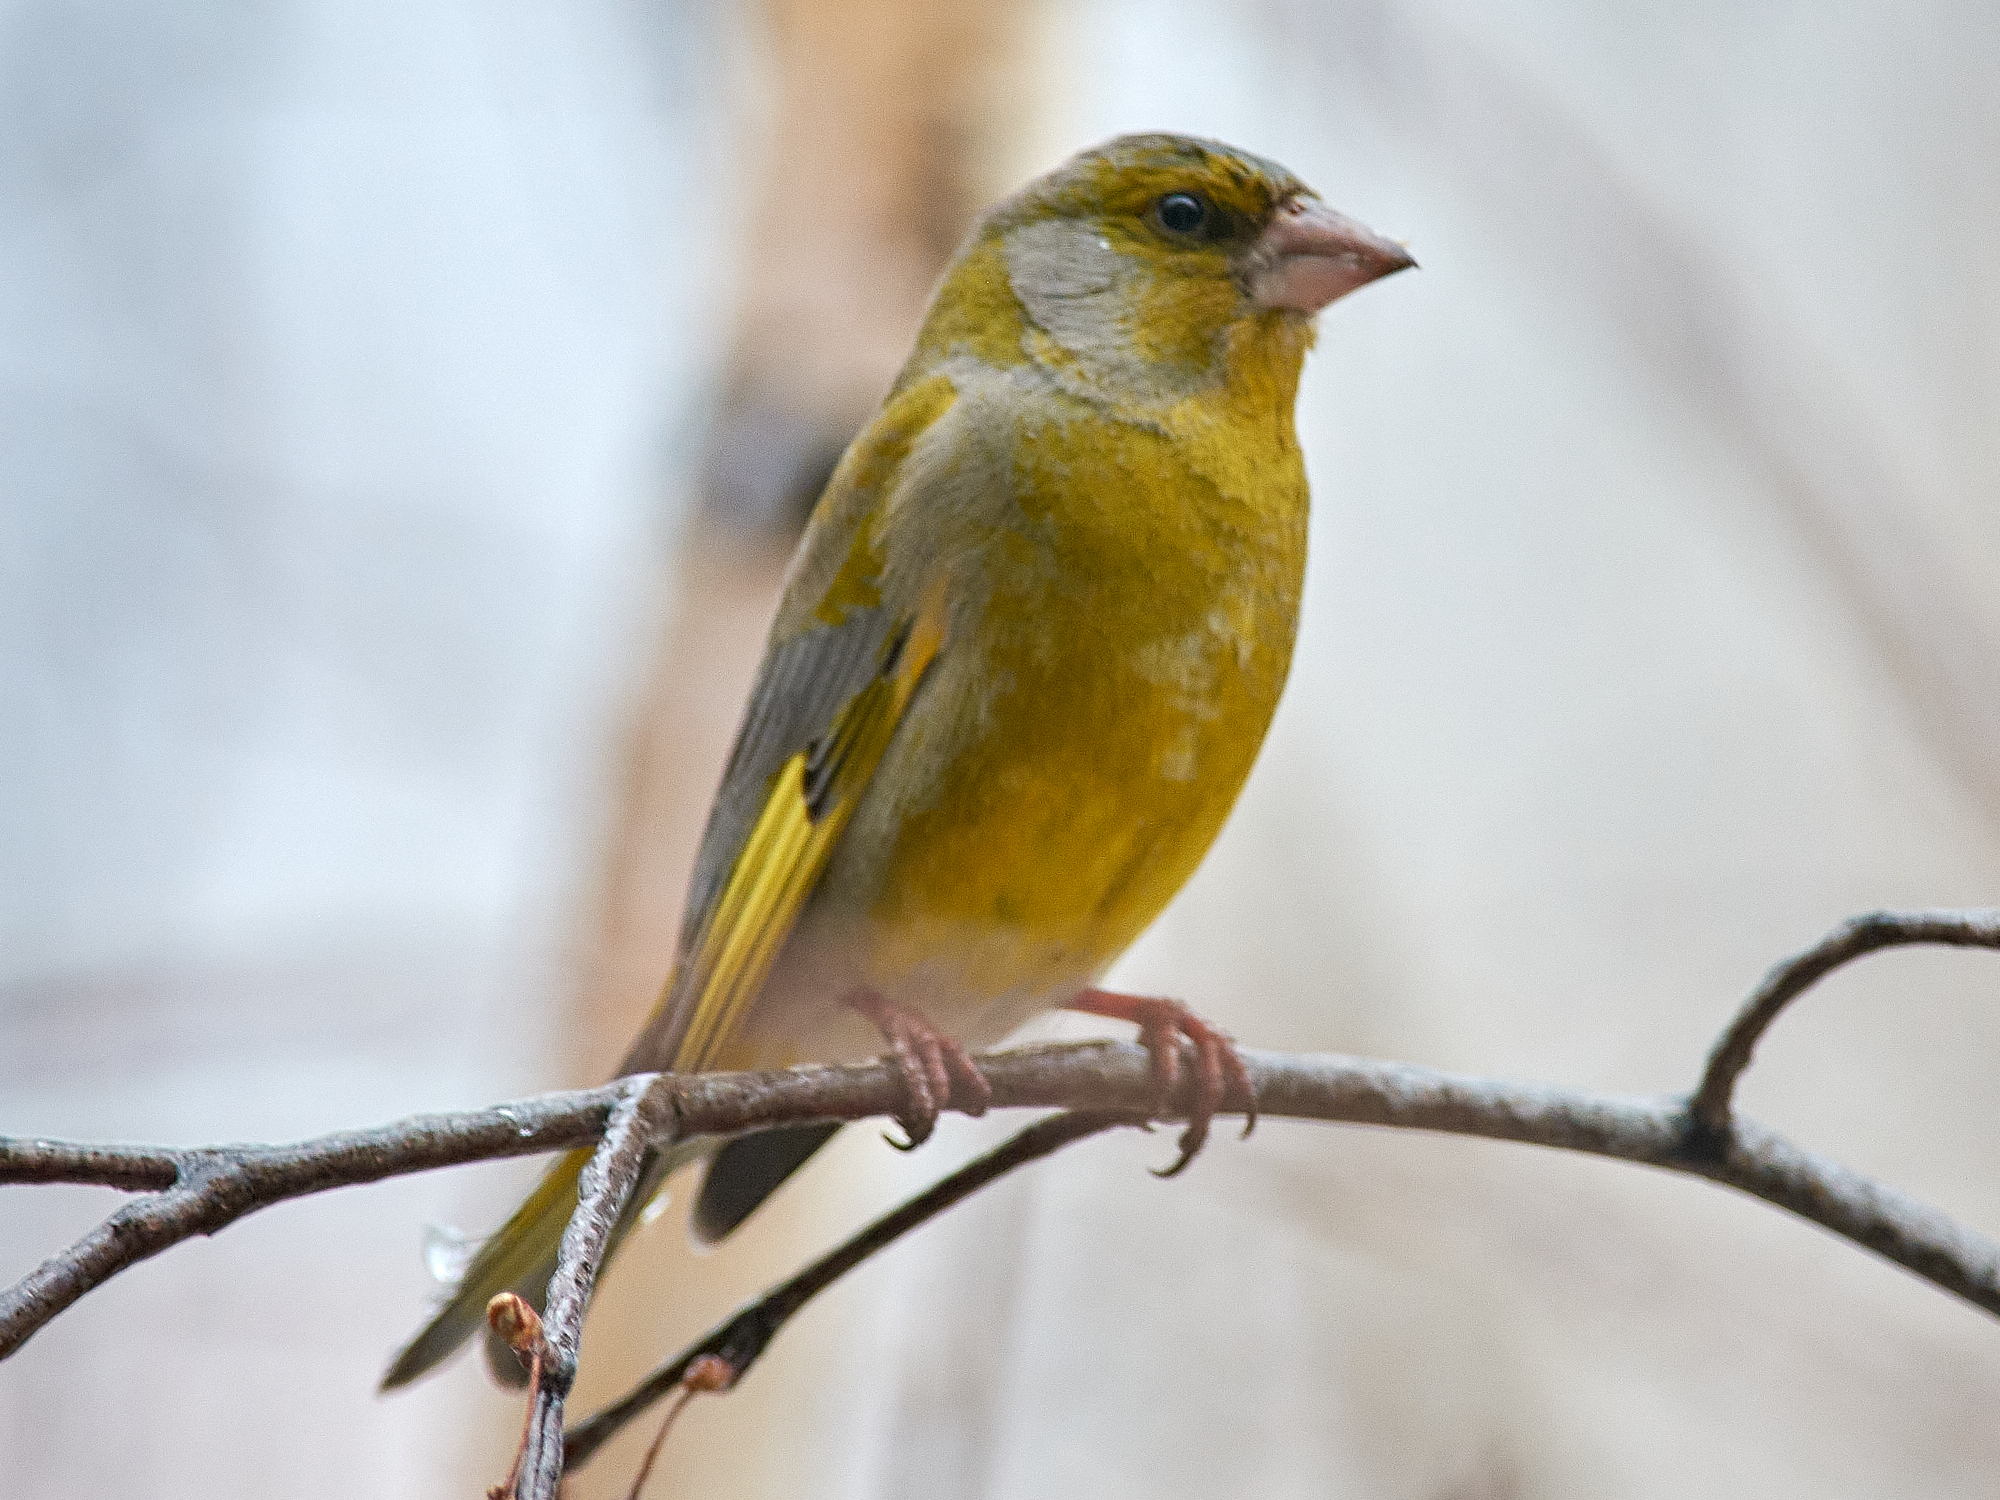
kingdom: Plantae
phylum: Tracheophyta
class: Liliopsida
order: Poales
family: Poaceae
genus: Chloris
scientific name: Chloris chloris
